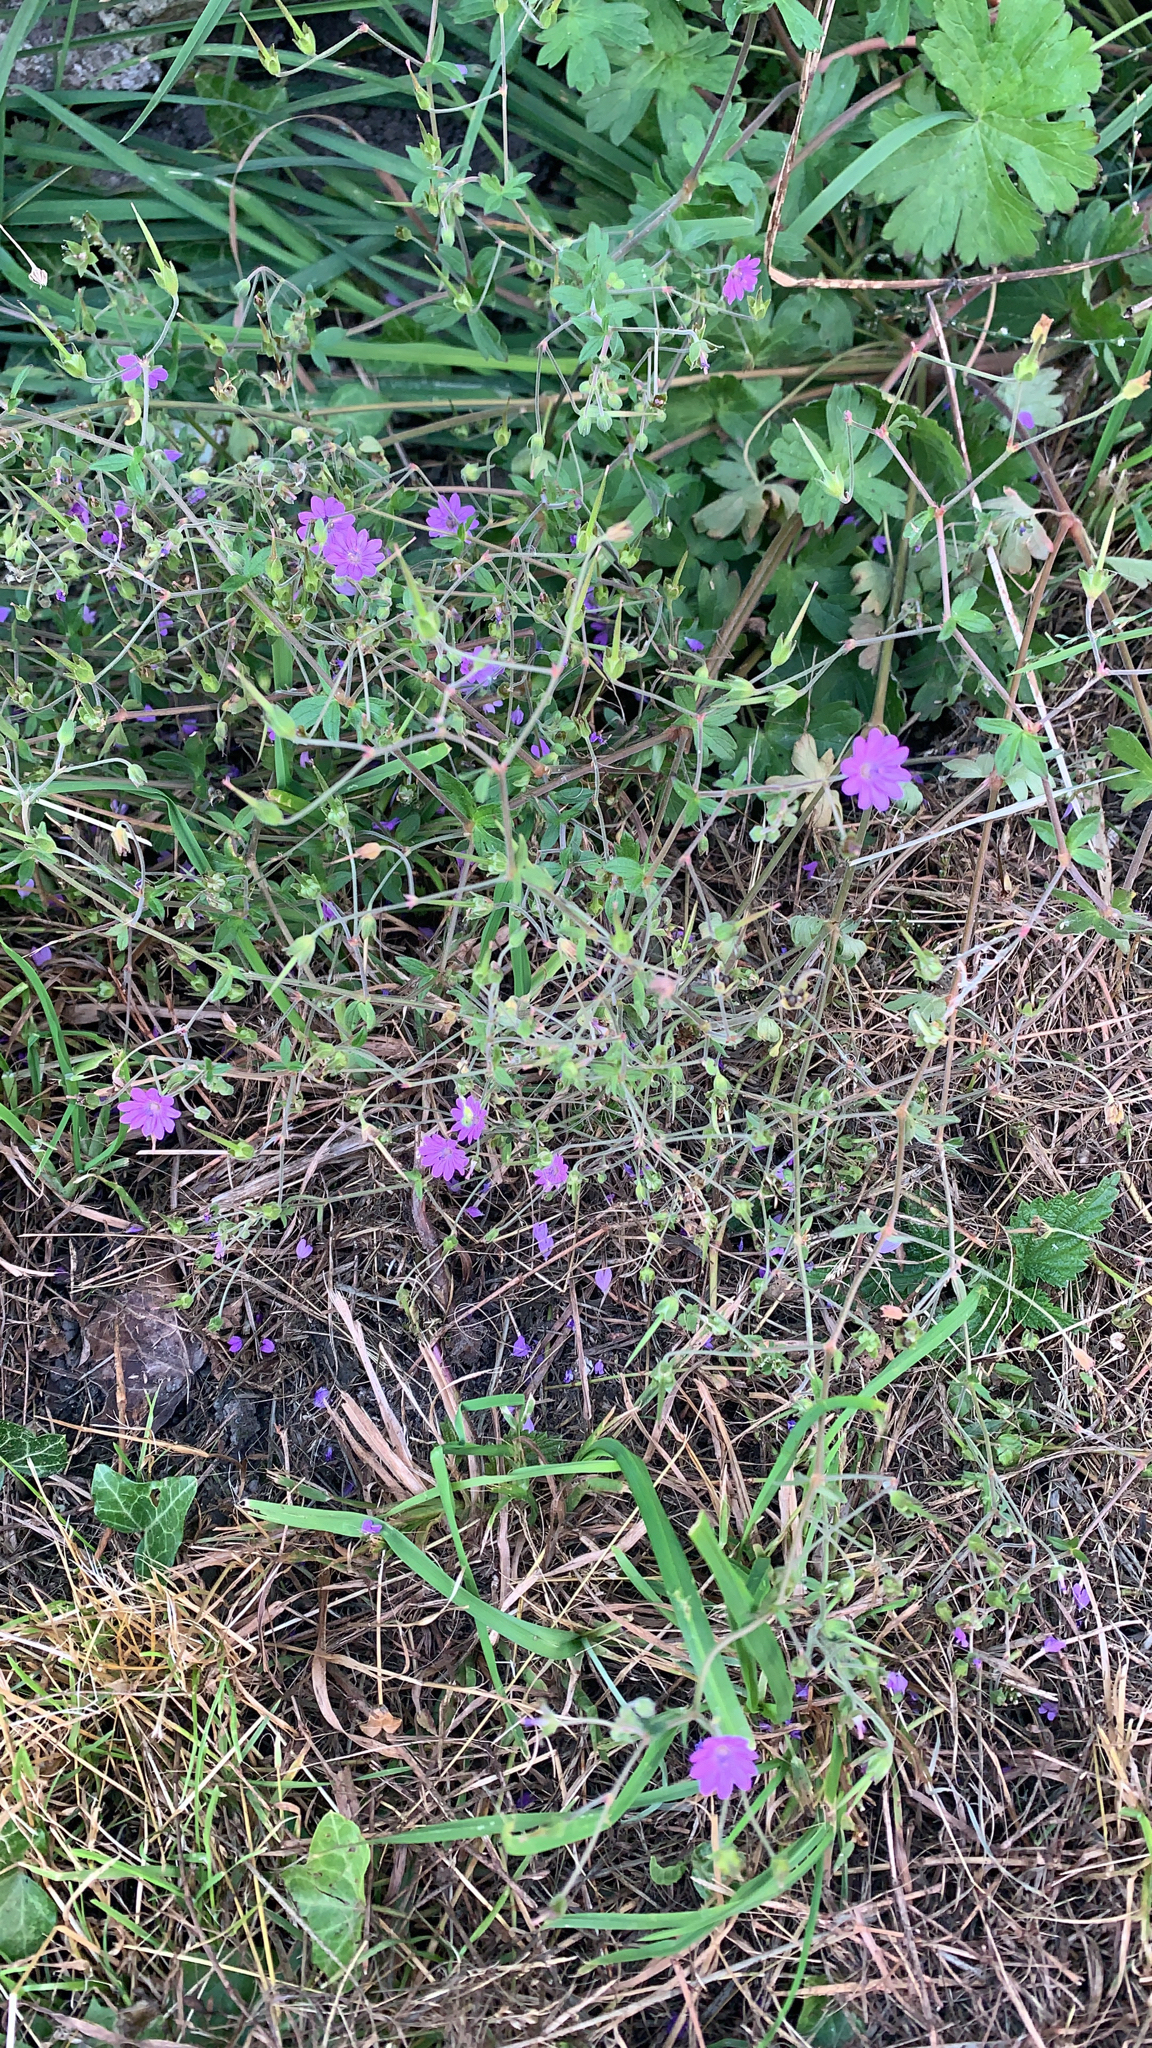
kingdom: Plantae
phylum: Tracheophyta
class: Magnoliopsida
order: Geraniales
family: Geraniaceae
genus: Geranium
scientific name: Geranium pyrenaicum
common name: Hedgerow crane's-bill
